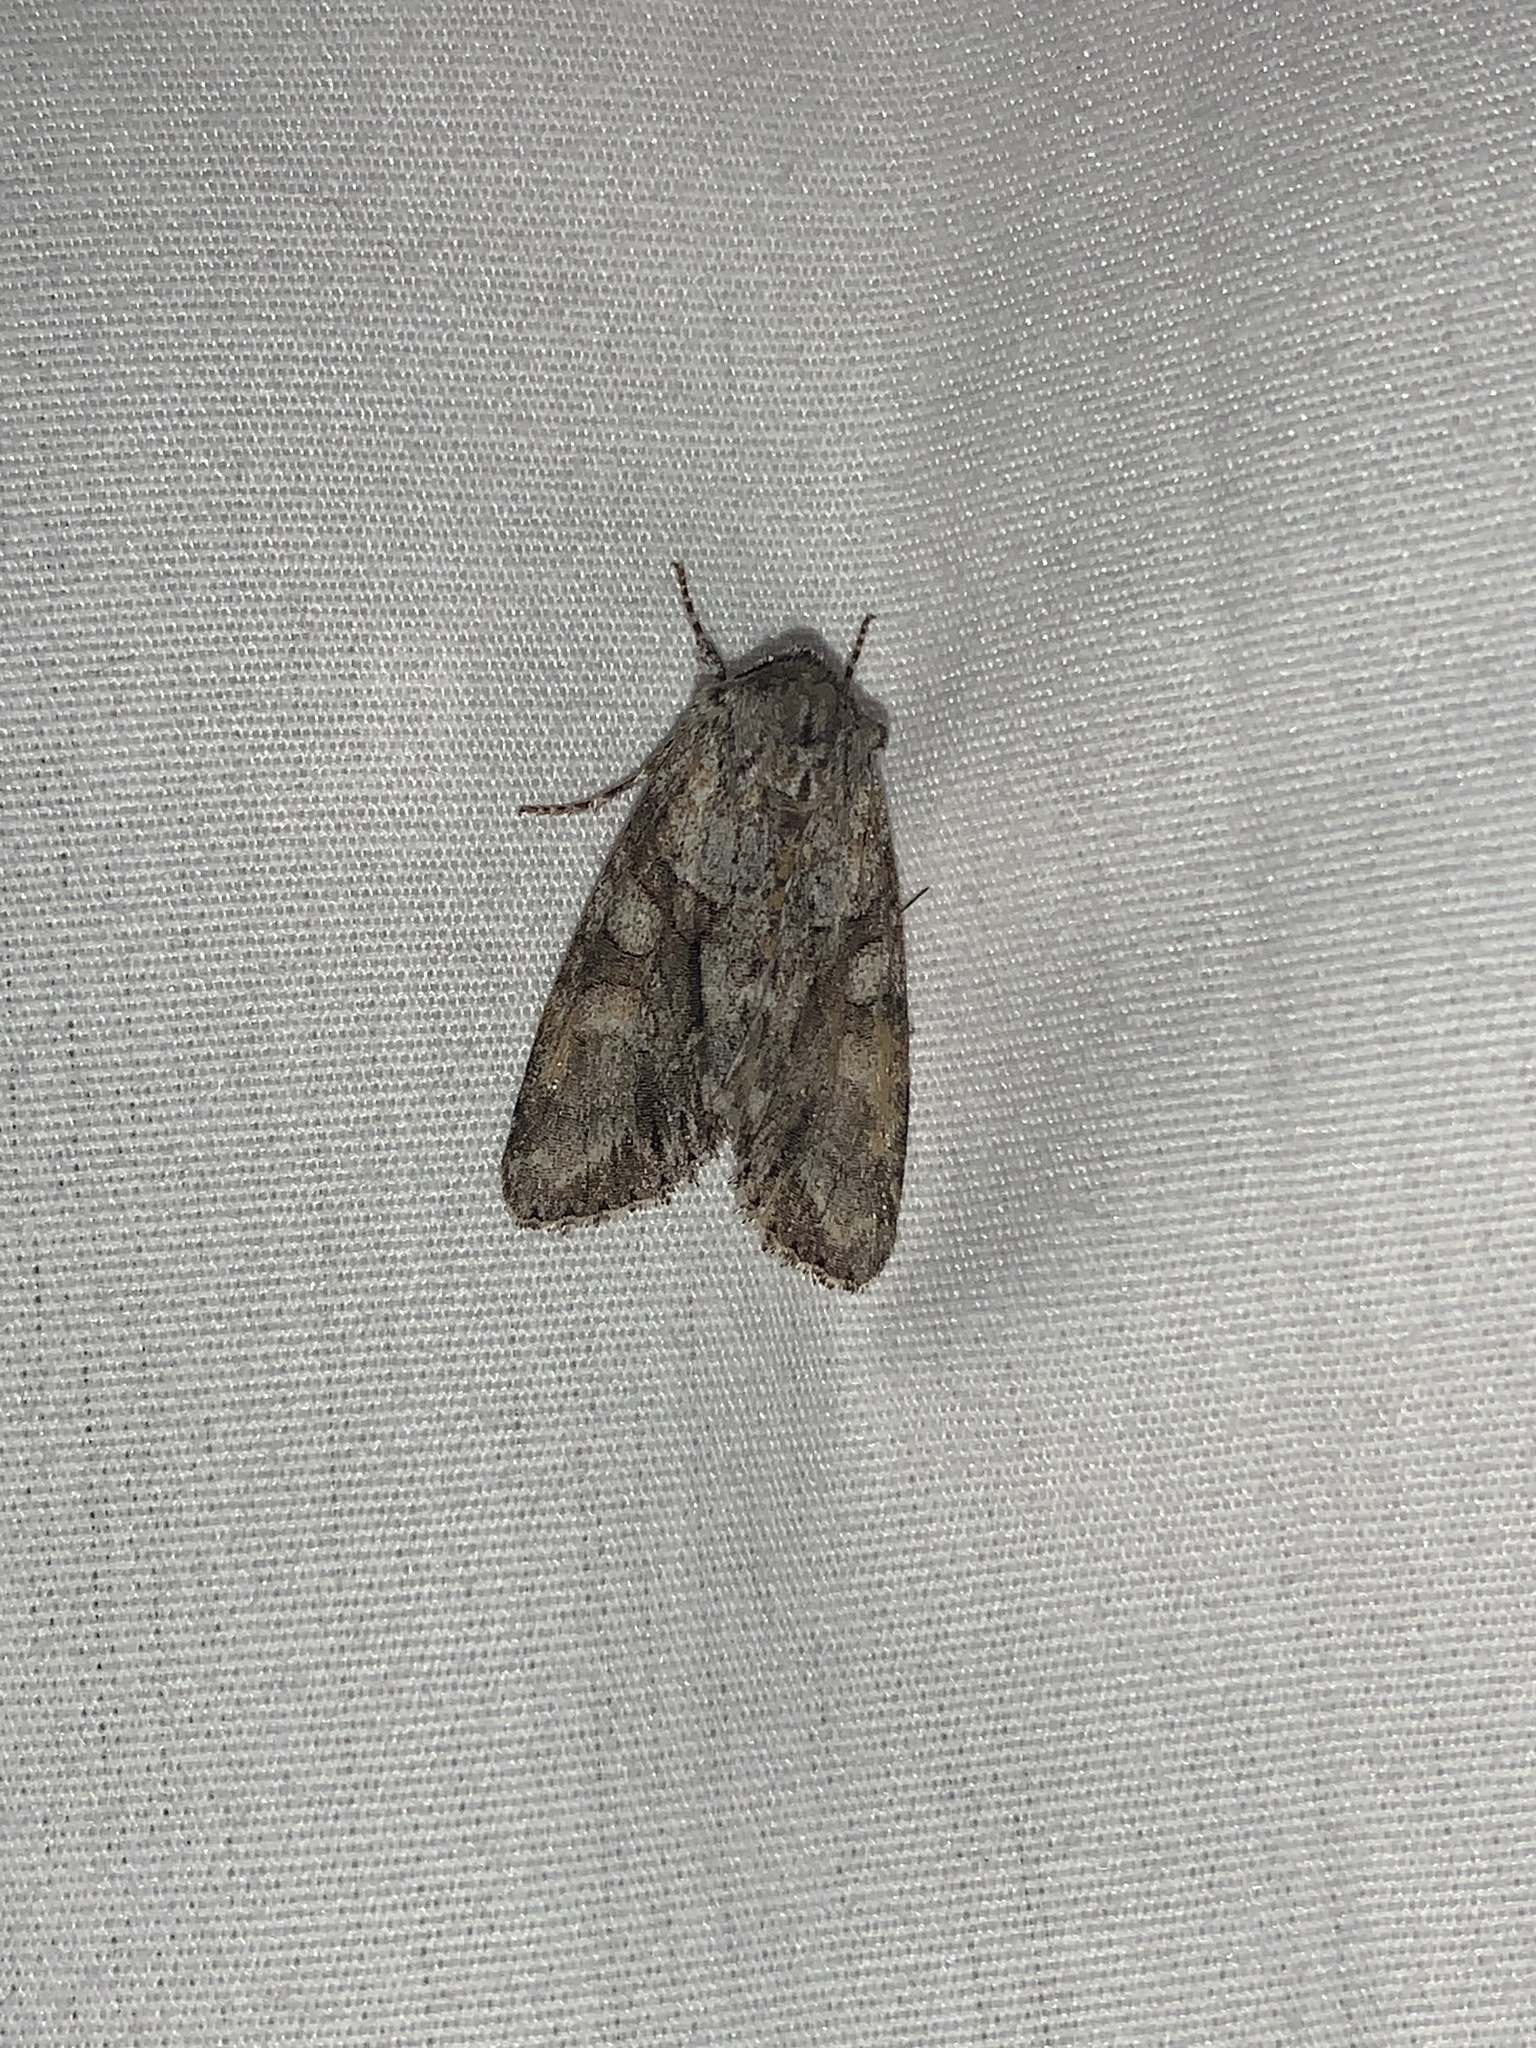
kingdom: Animalia
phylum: Arthropoda
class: Insecta
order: Lepidoptera
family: Noctuidae
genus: Achatia
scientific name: Achatia distincta
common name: Distinct quaker
